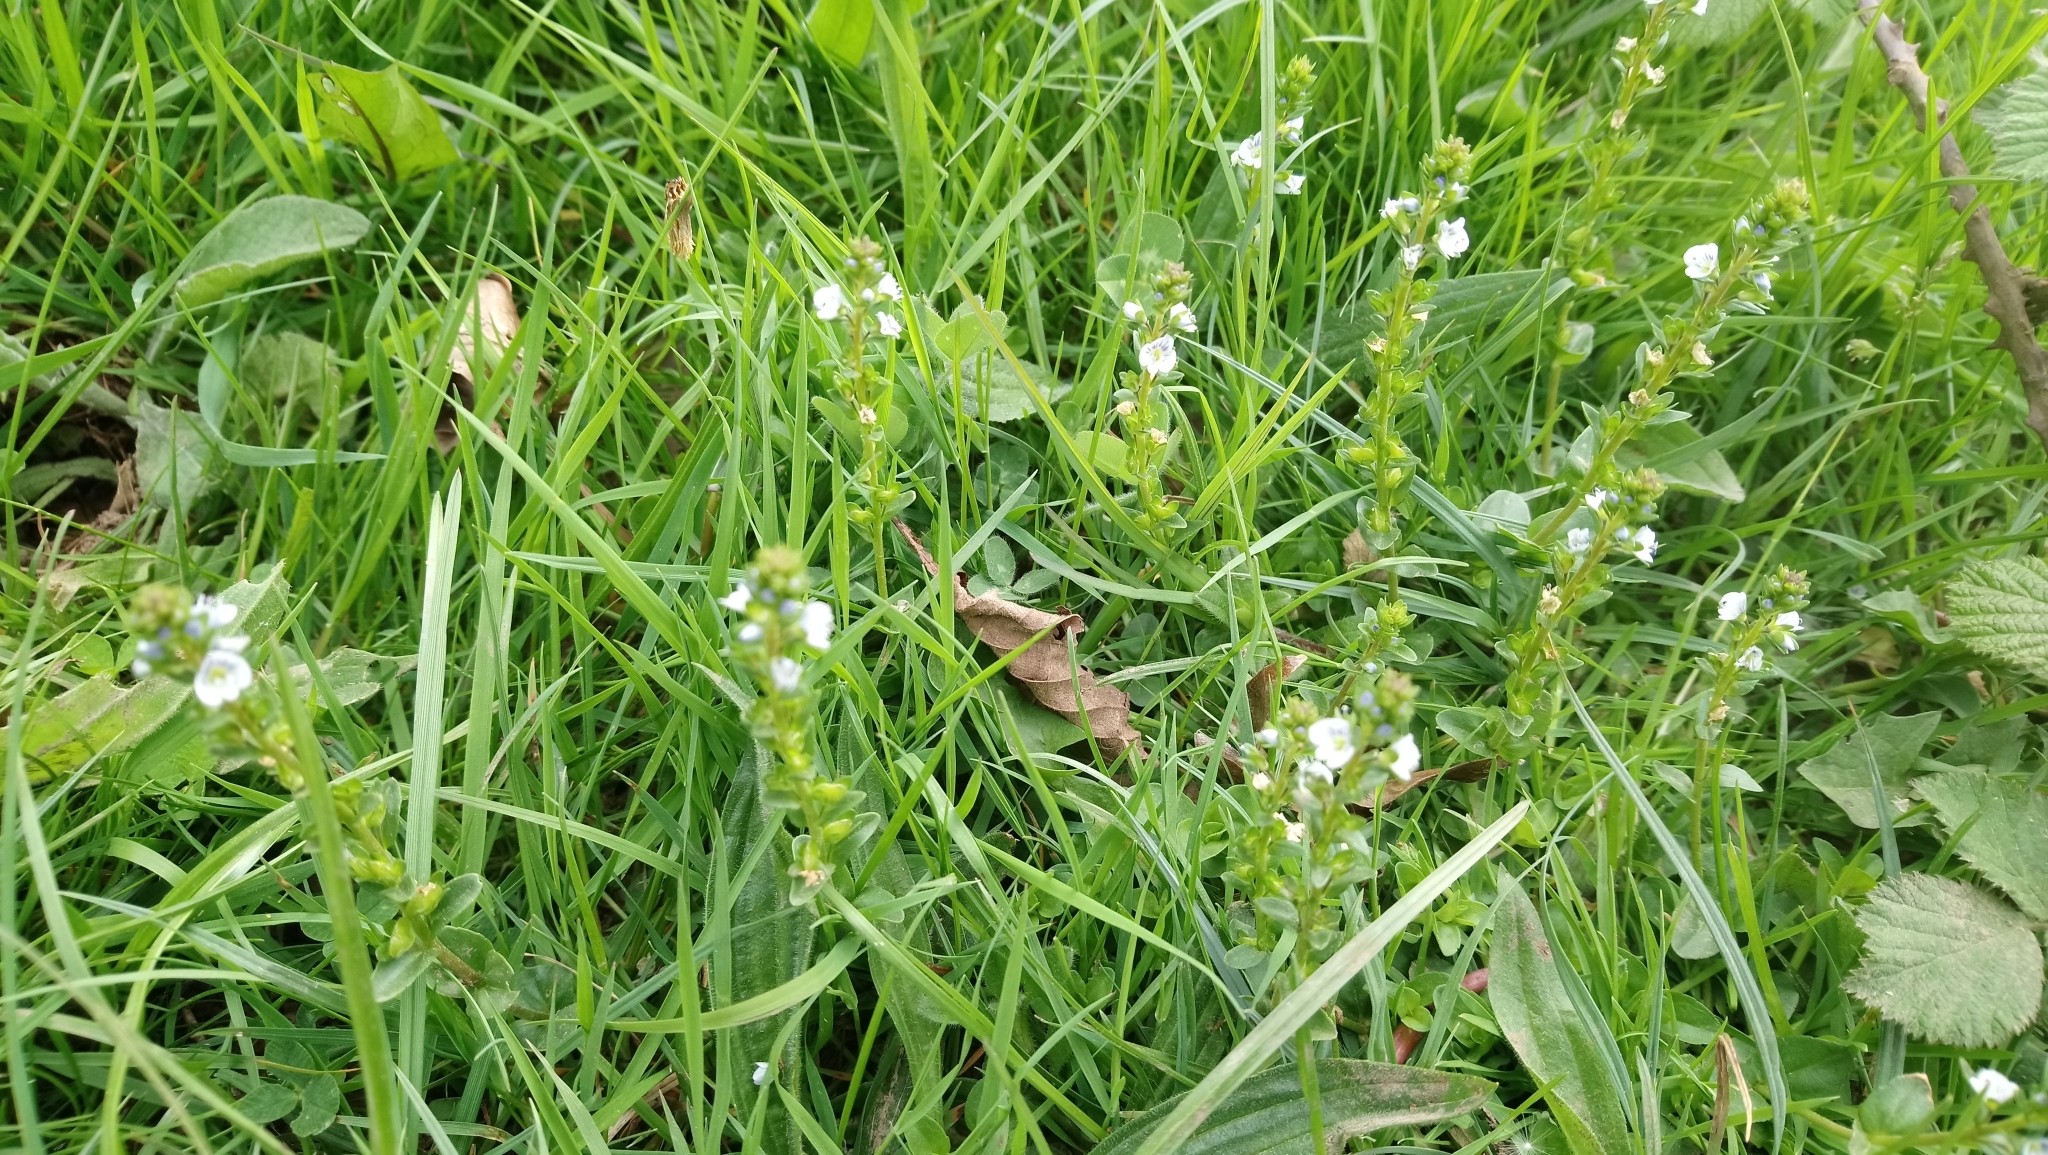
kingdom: Plantae
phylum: Tracheophyta
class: Magnoliopsida
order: Lamiales
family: Plantaginaceae
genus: Veronica
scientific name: Veronica serpyllifolia
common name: Thyme-leaved speedwell
